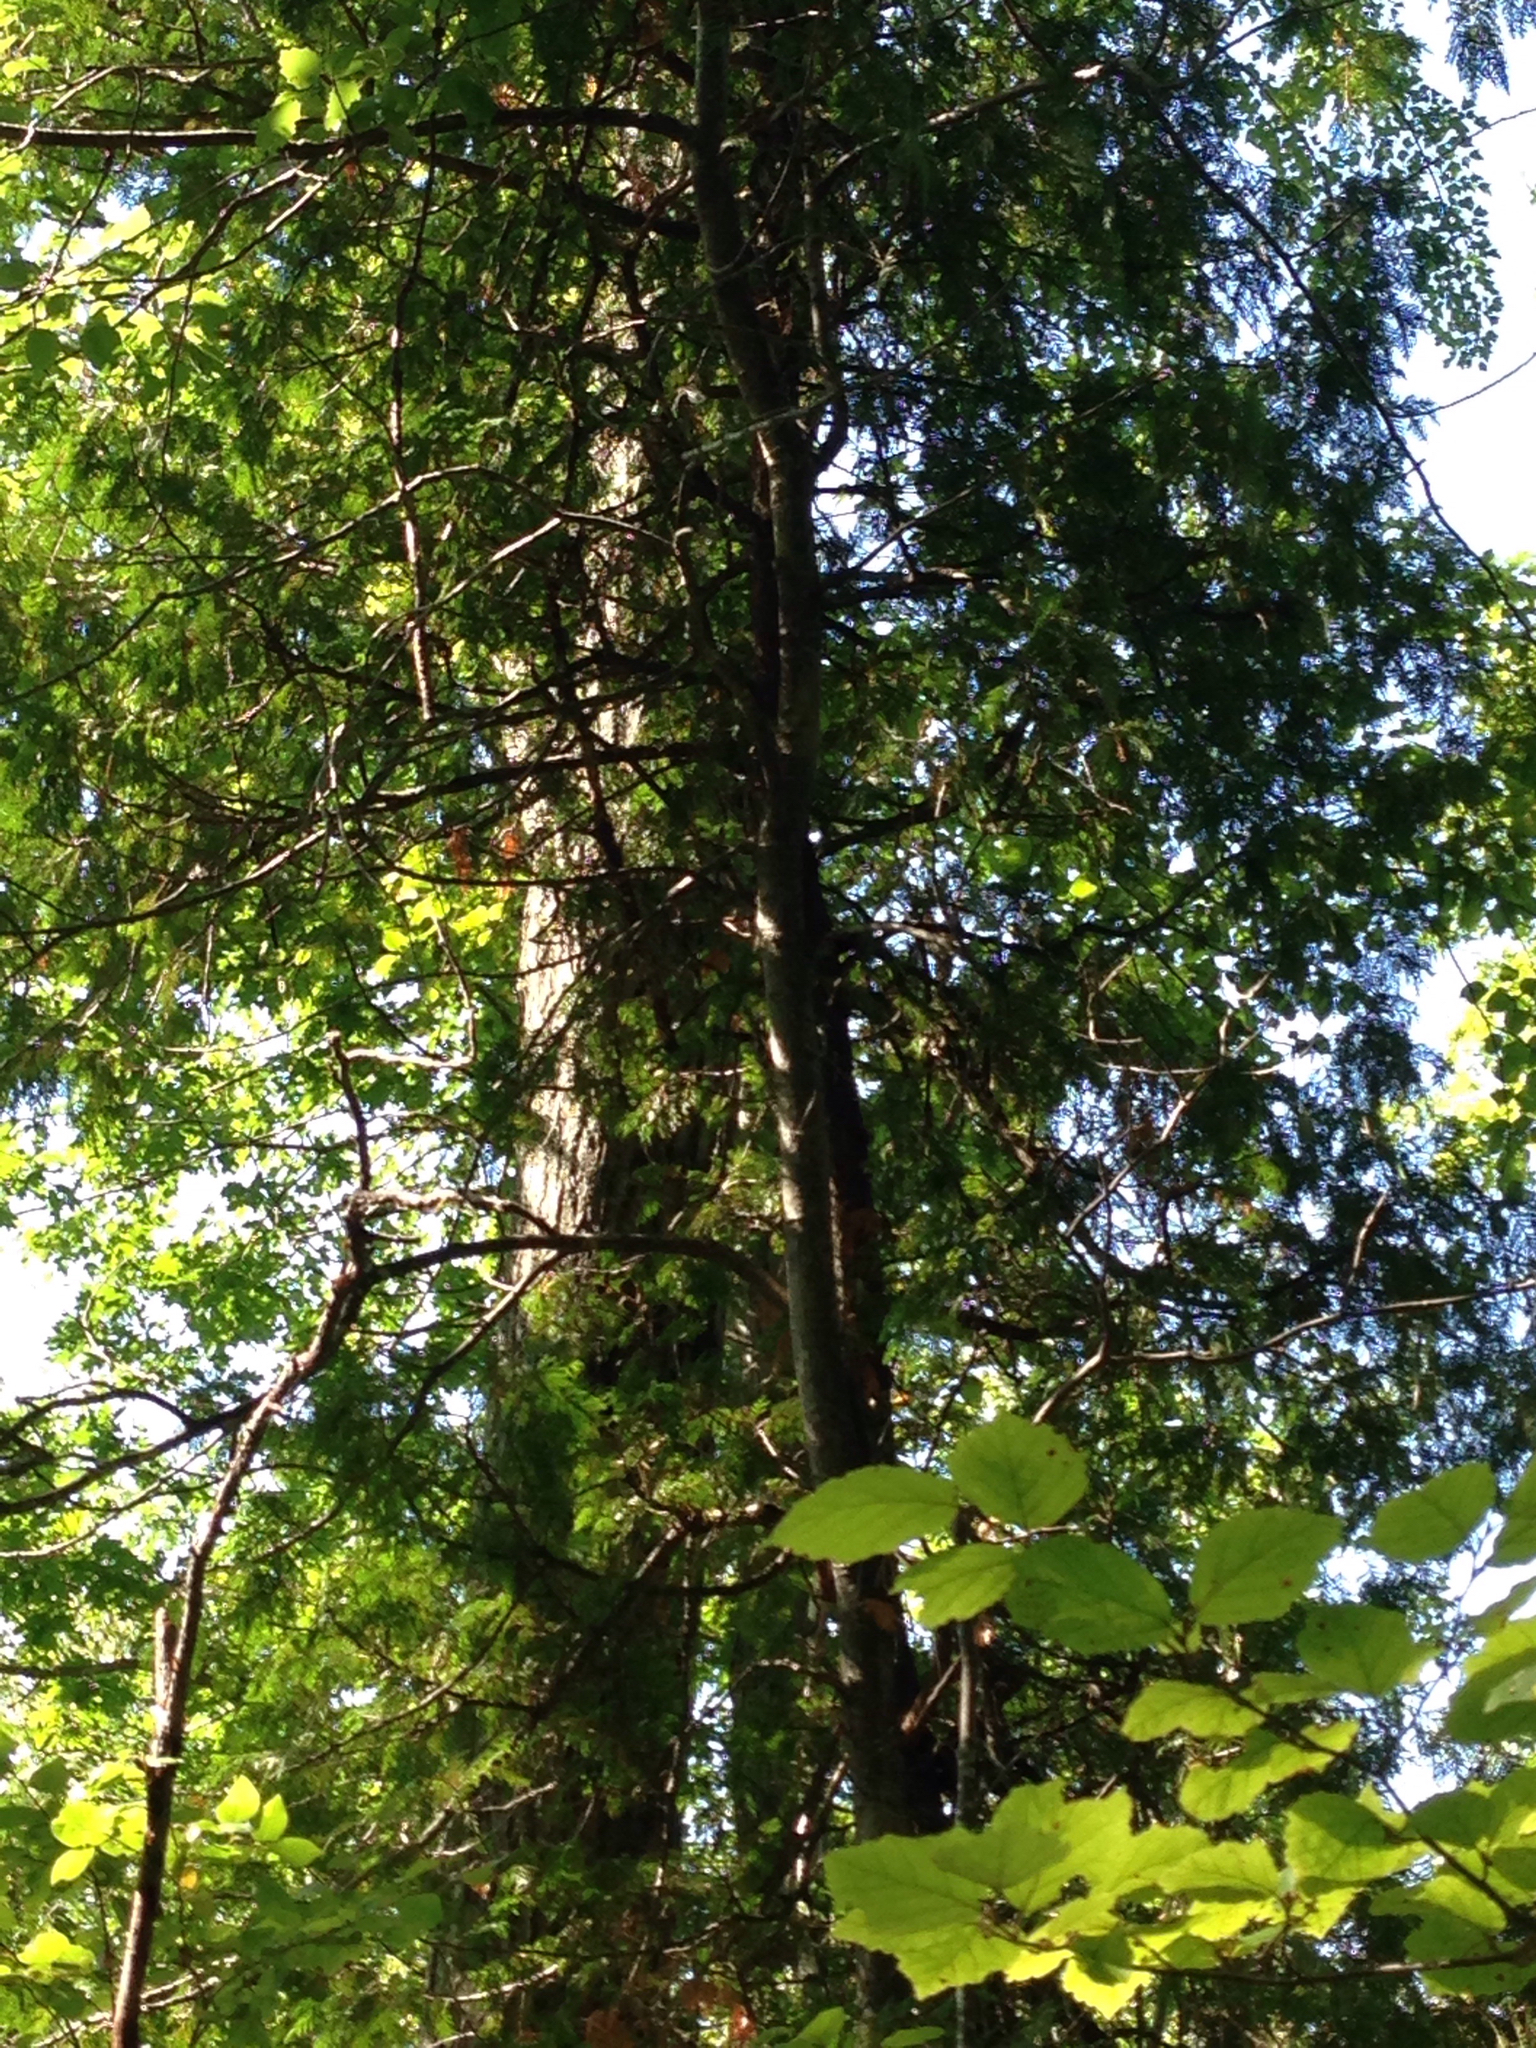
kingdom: Plantae
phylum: Tracheophyta
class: Pinopsida
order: Pinales
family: Cupressaceae
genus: Thuja
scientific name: Thuja occidentalis
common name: Northern white-cedar
